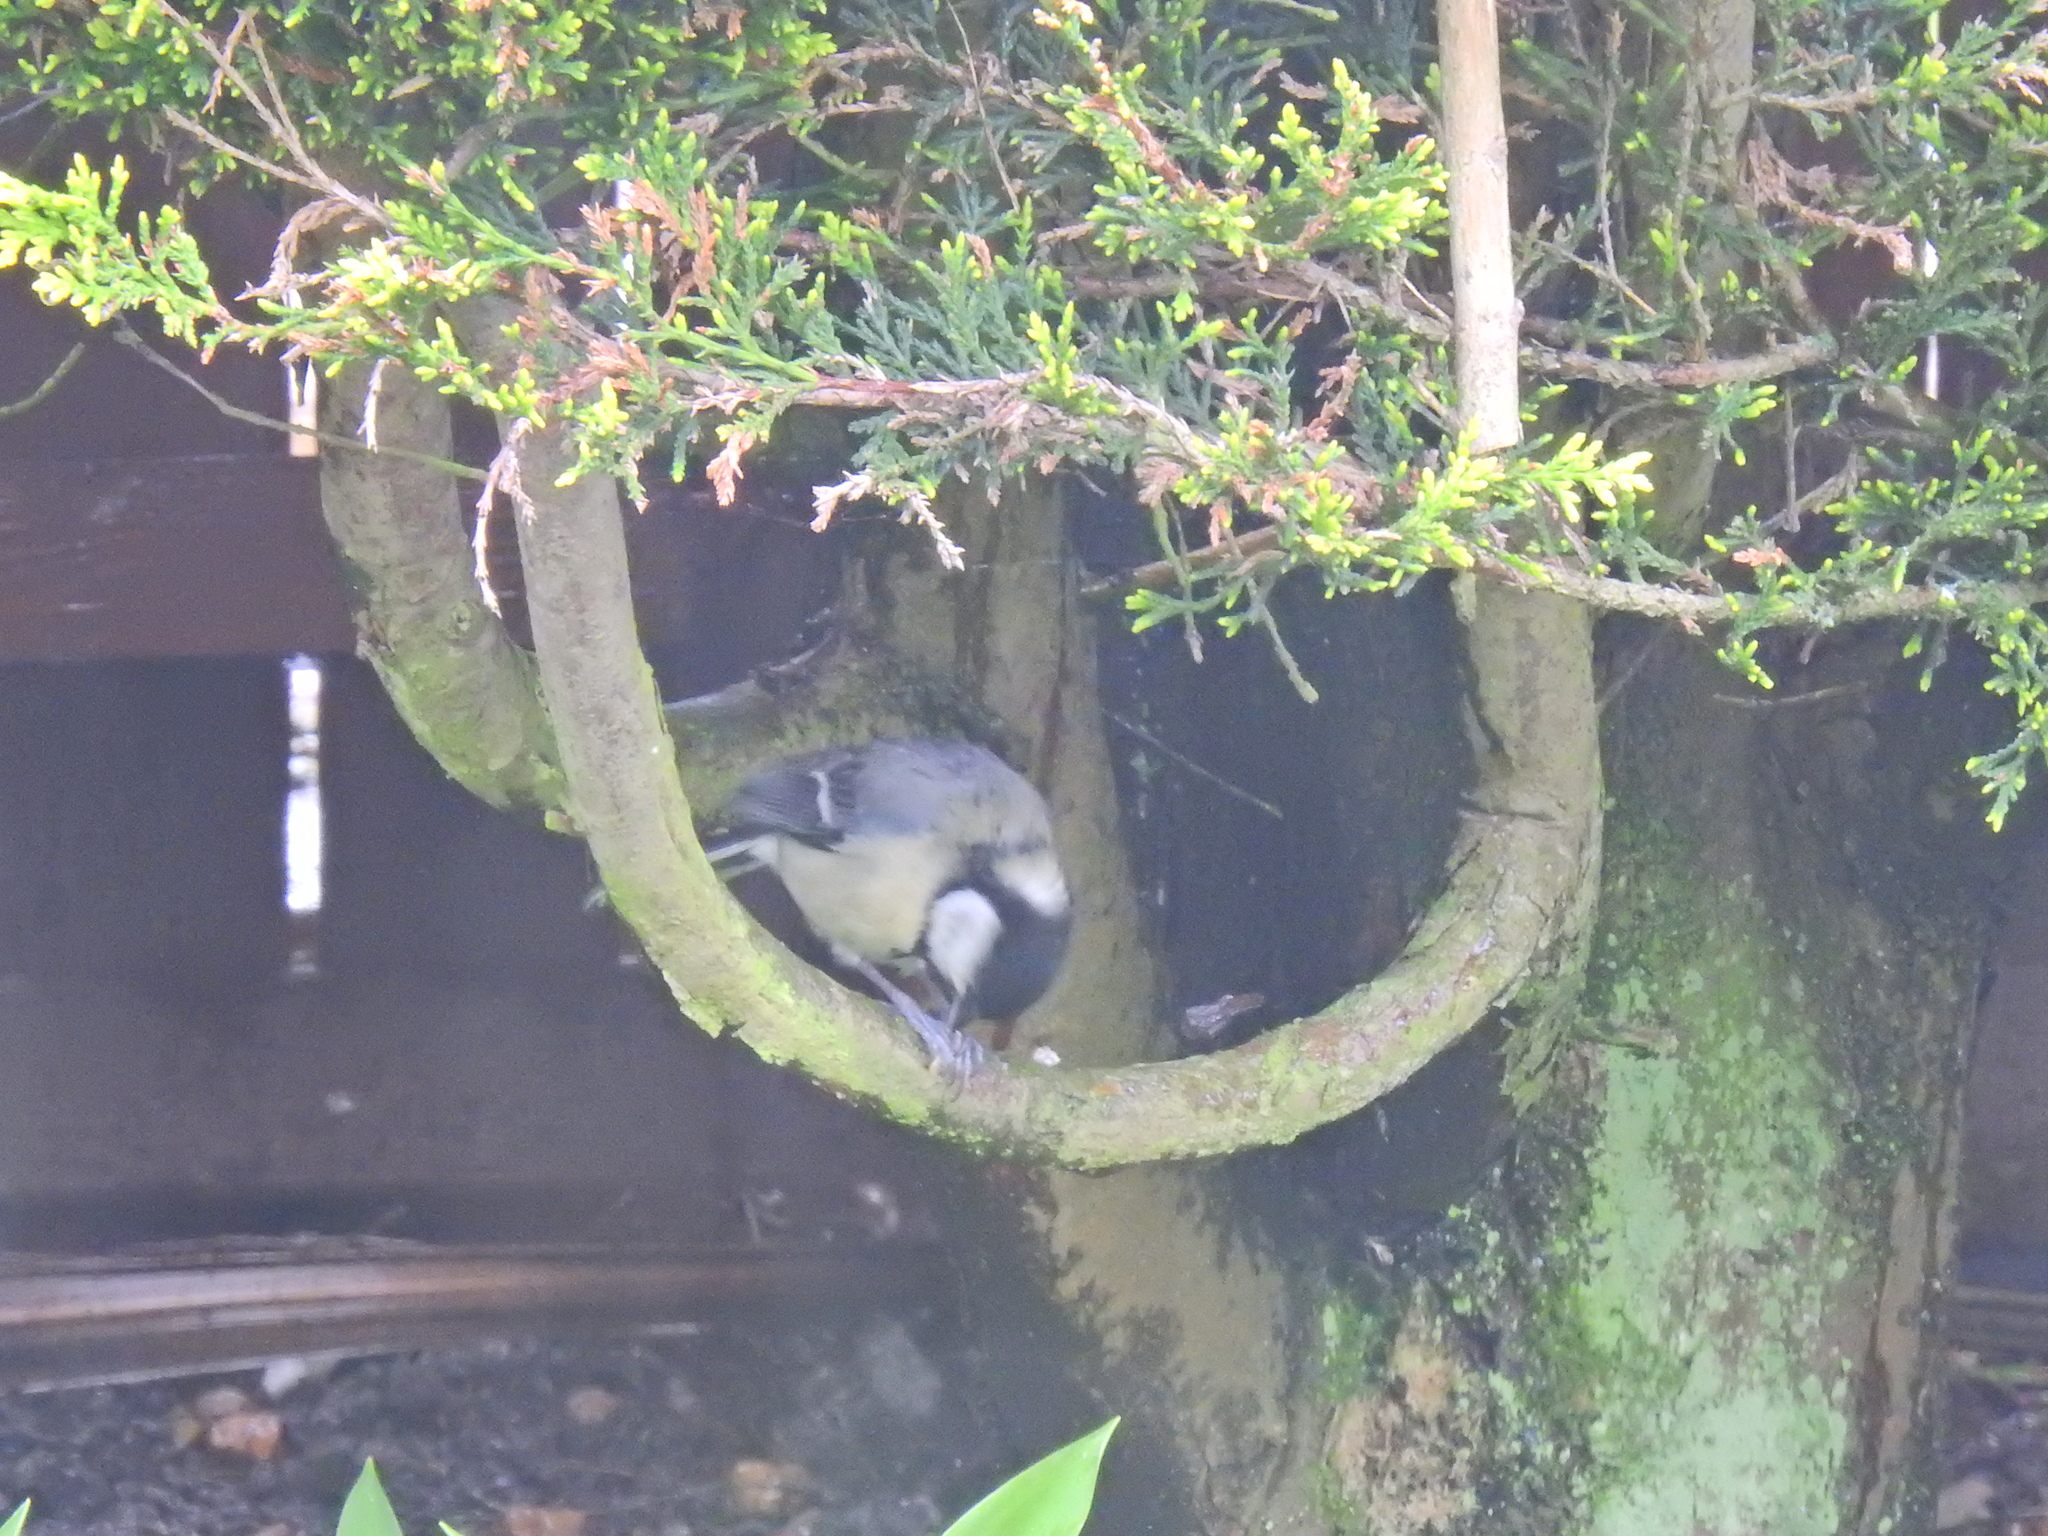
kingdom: Animalia
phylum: Chordata
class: Aves
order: Passeriformes
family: Paridae
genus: Parus
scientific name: Parus major
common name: Great tit
